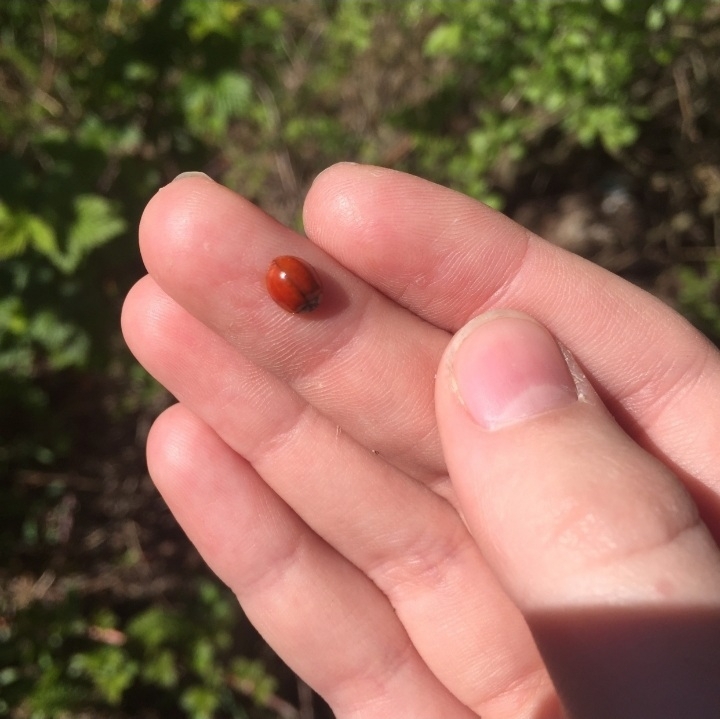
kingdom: Animalia
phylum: Arthropoda
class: Insecta
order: Coleoptera
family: Coccinellidae
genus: Harmonia
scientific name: Harmonia axyridis
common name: Harlequin ladybird
